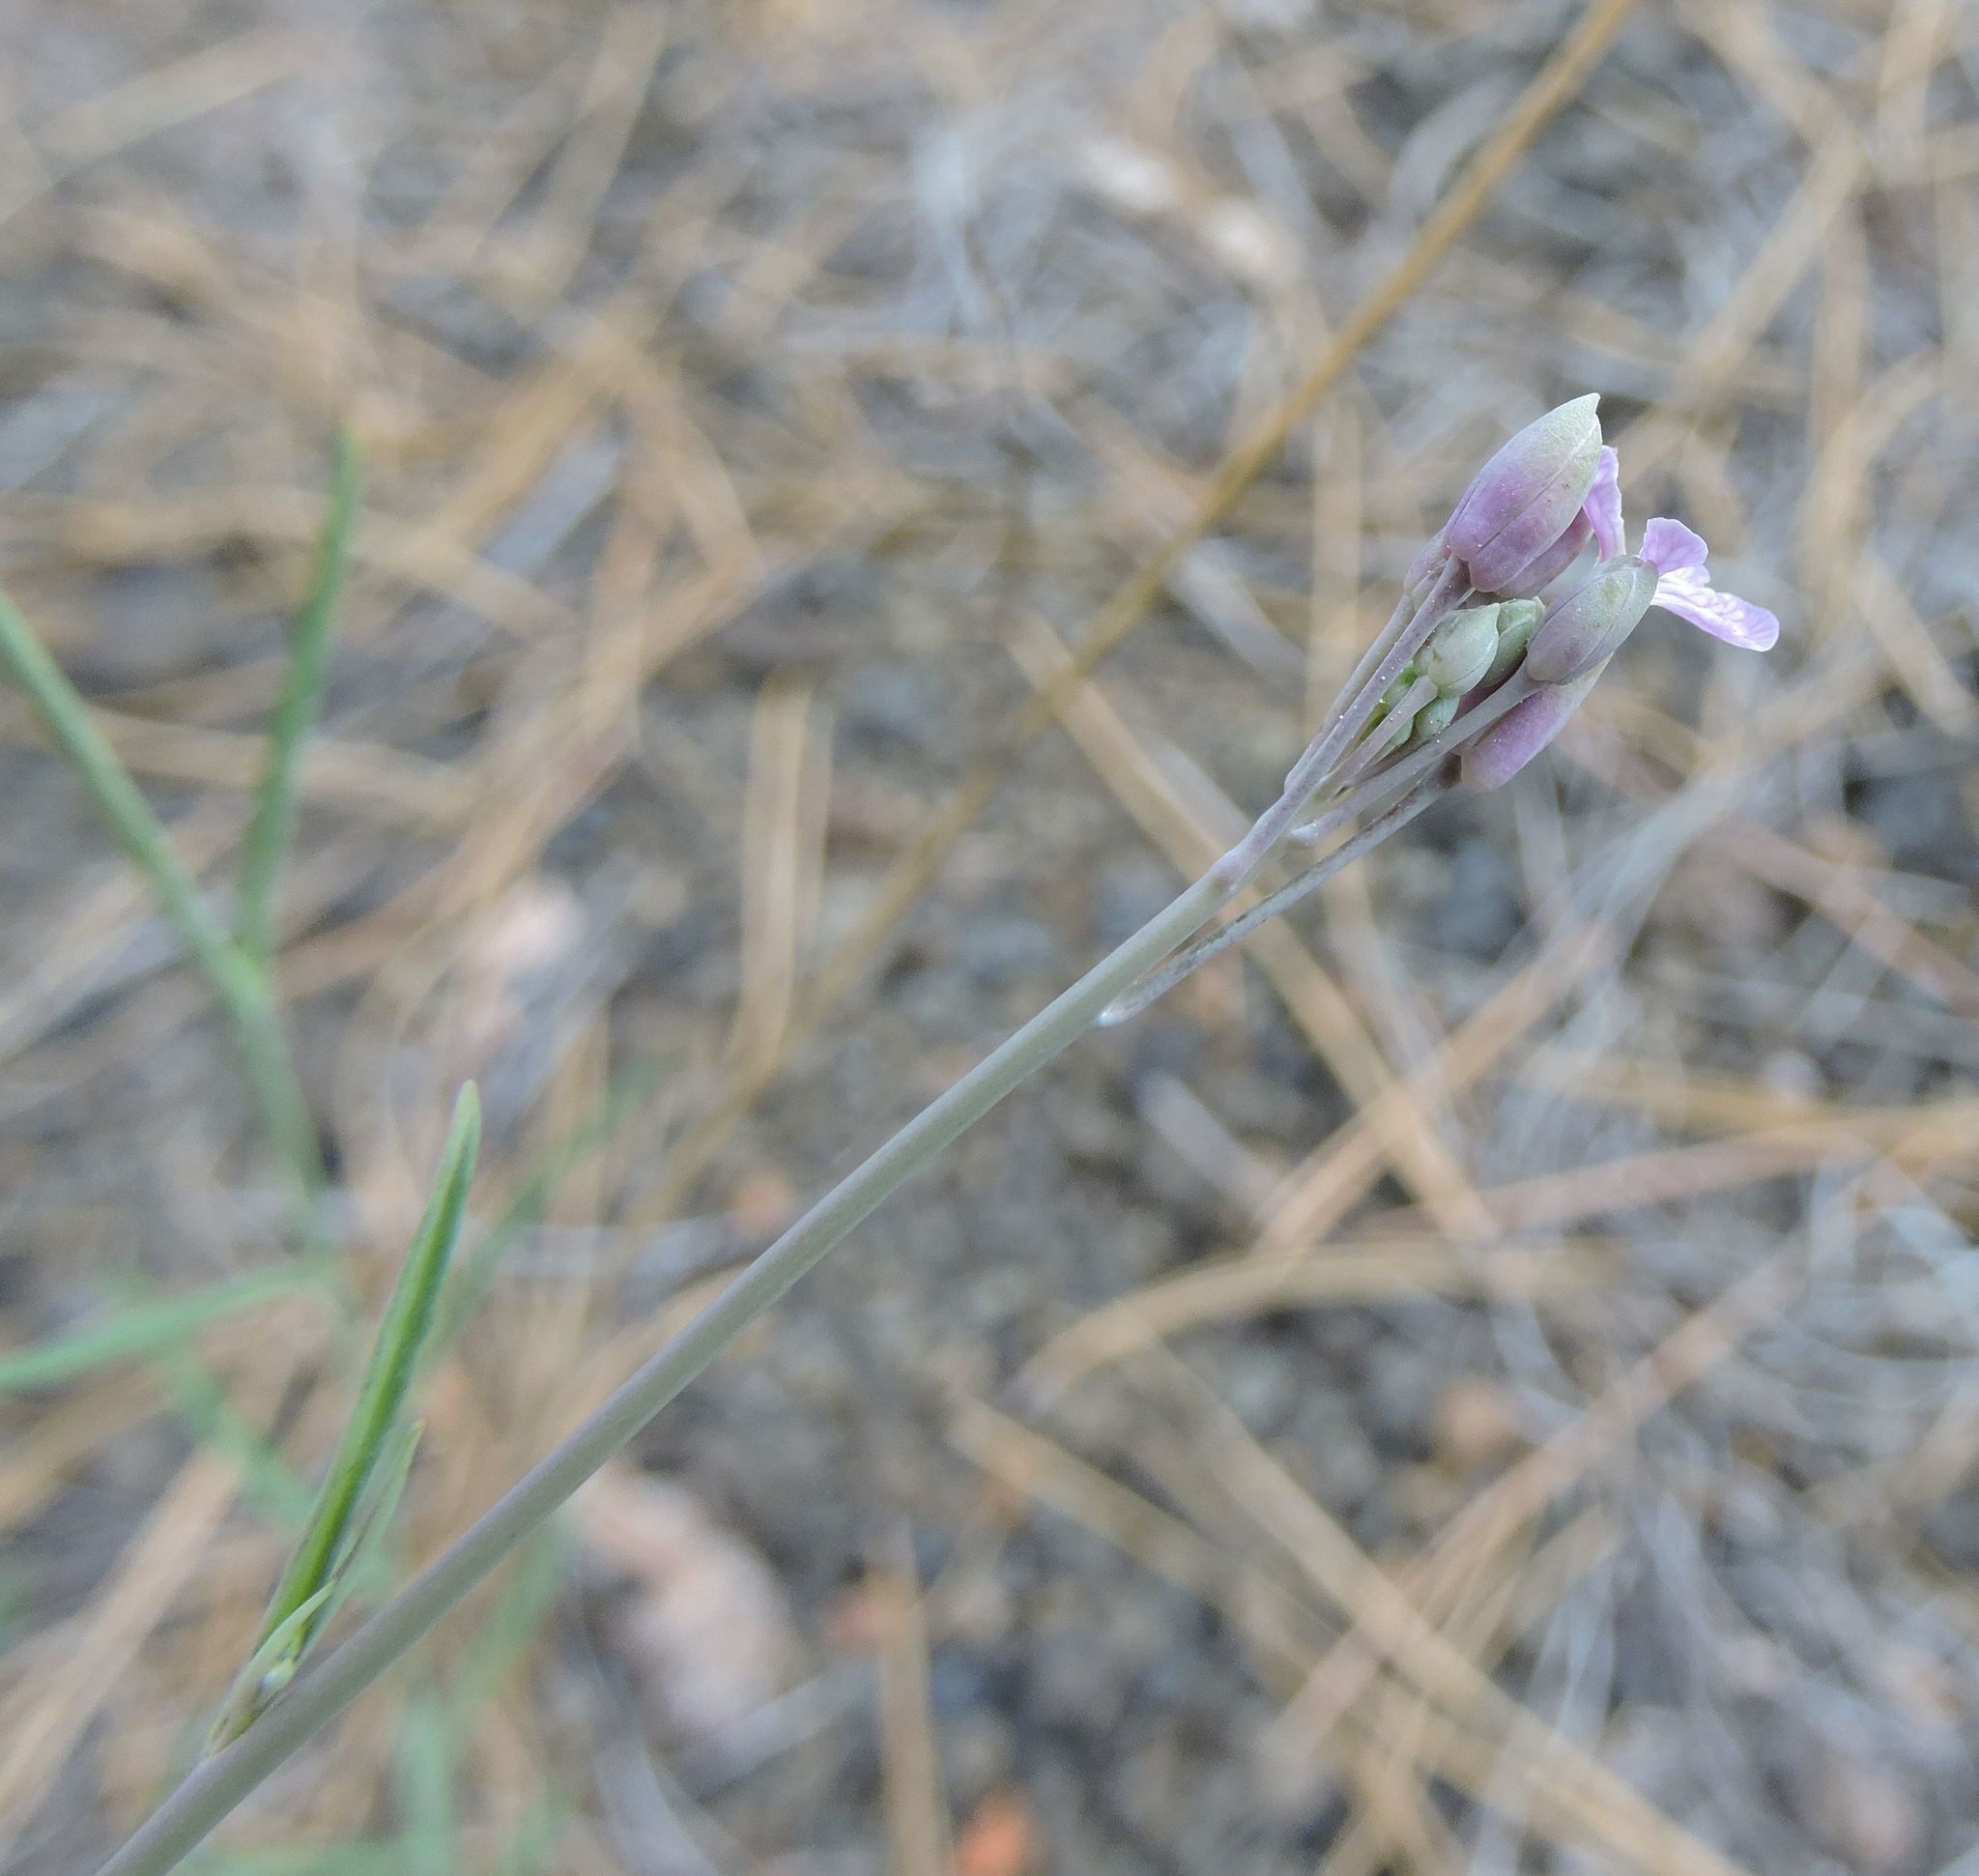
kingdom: Plantae
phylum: Tracheophyta
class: Magnoliopsida
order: Brassicales
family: Brassicaceae
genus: Hesperidanthus
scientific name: Hesperidanthus linearifolius
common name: Slim-leaf plains mustard
